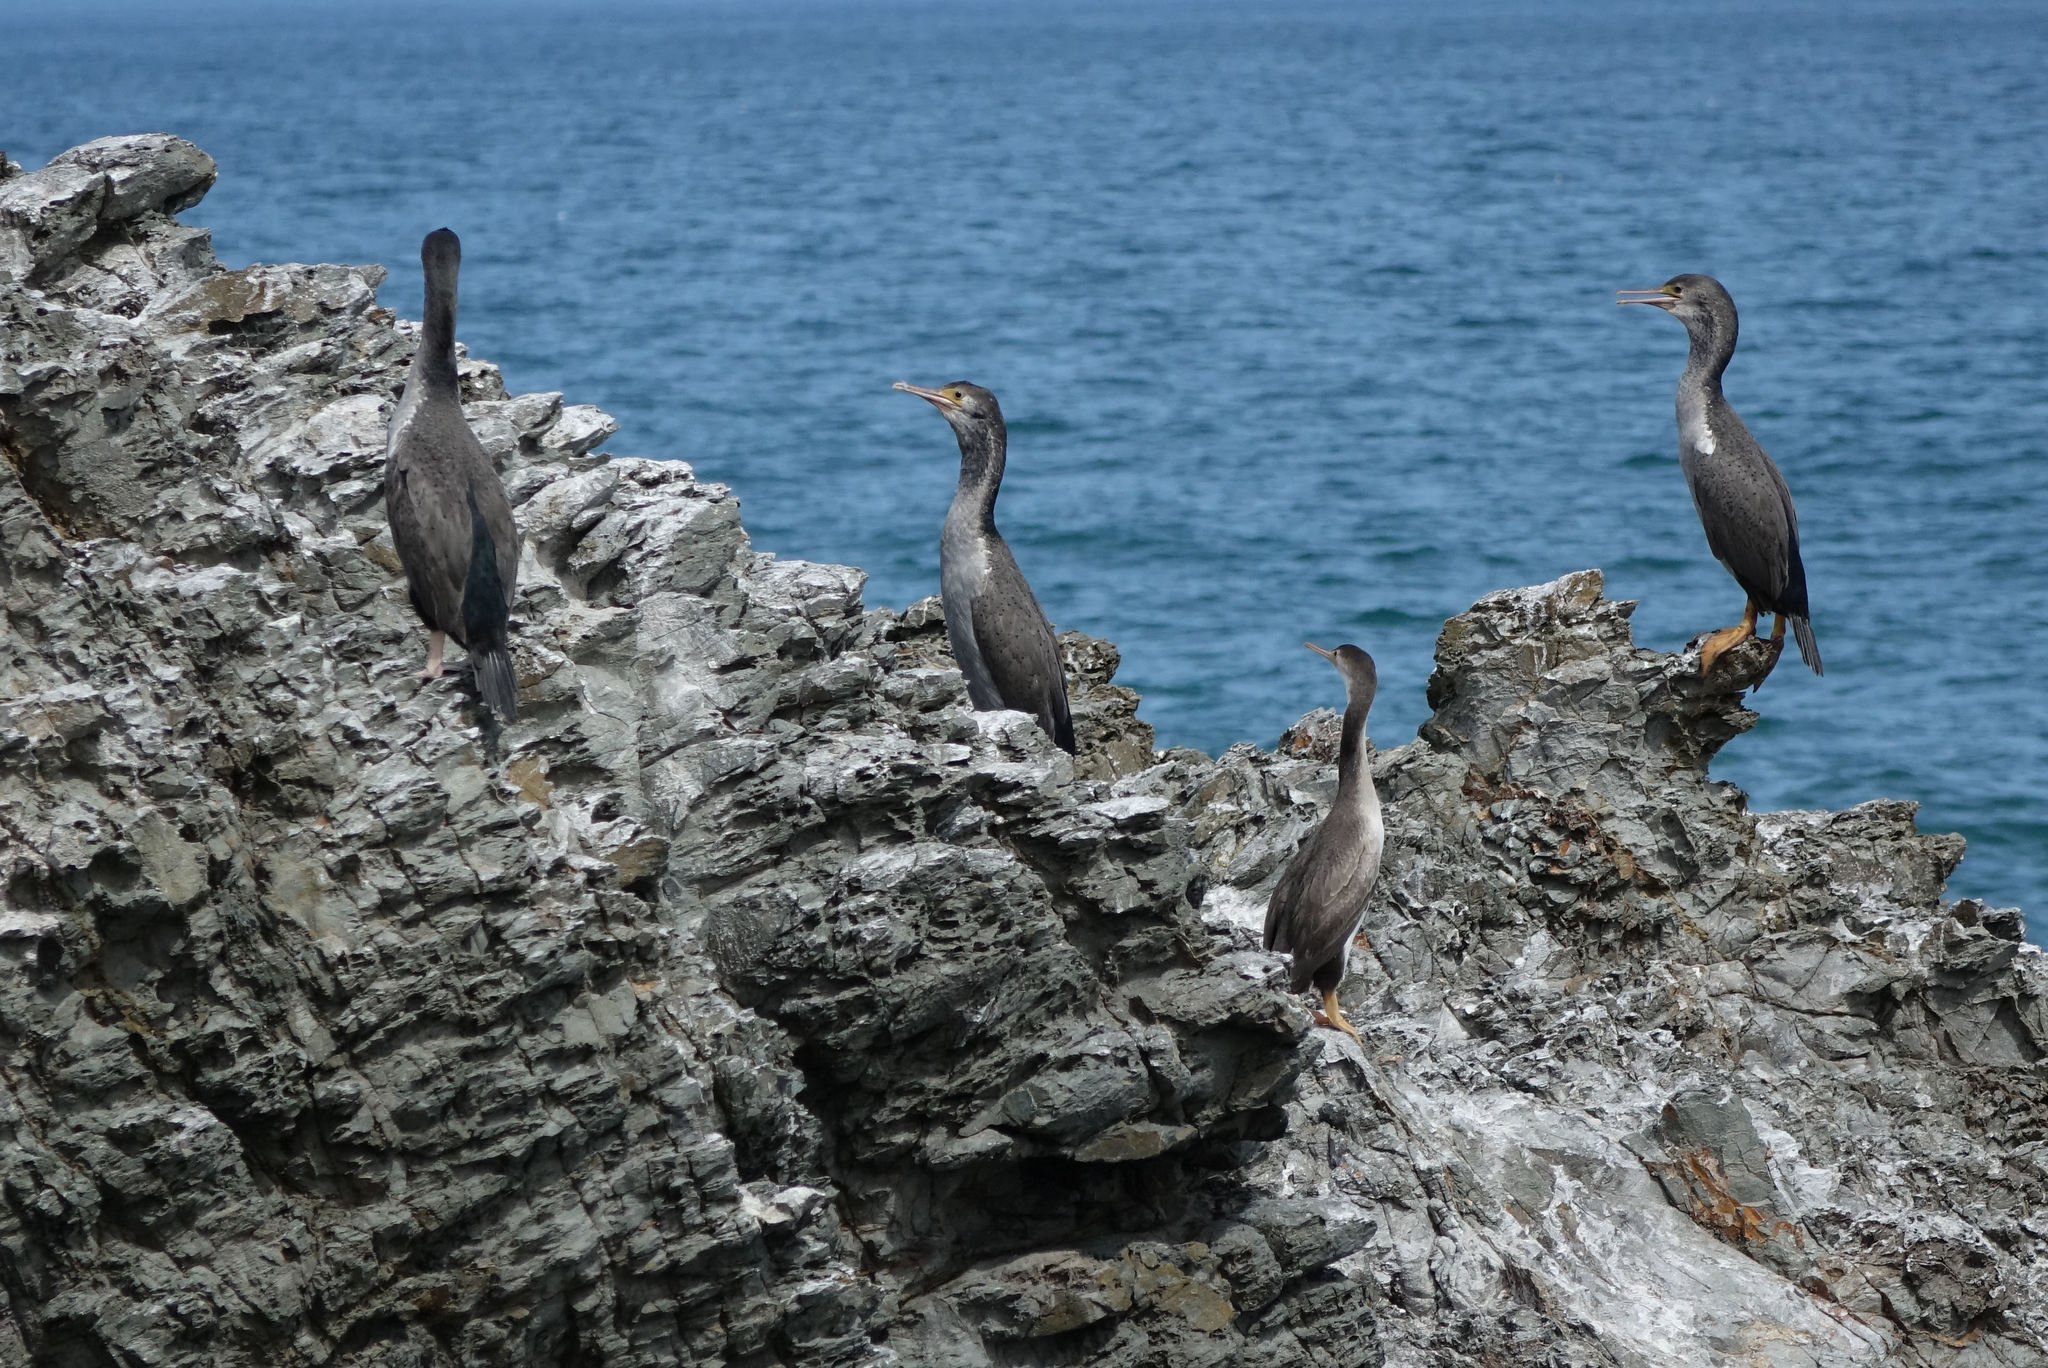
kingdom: Animalia
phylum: Chordata
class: Aves
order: Suliformes
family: Phalacrocoracidae
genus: Phalacrocorax
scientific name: Phalacrocorax punctatus
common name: Spotted shag
